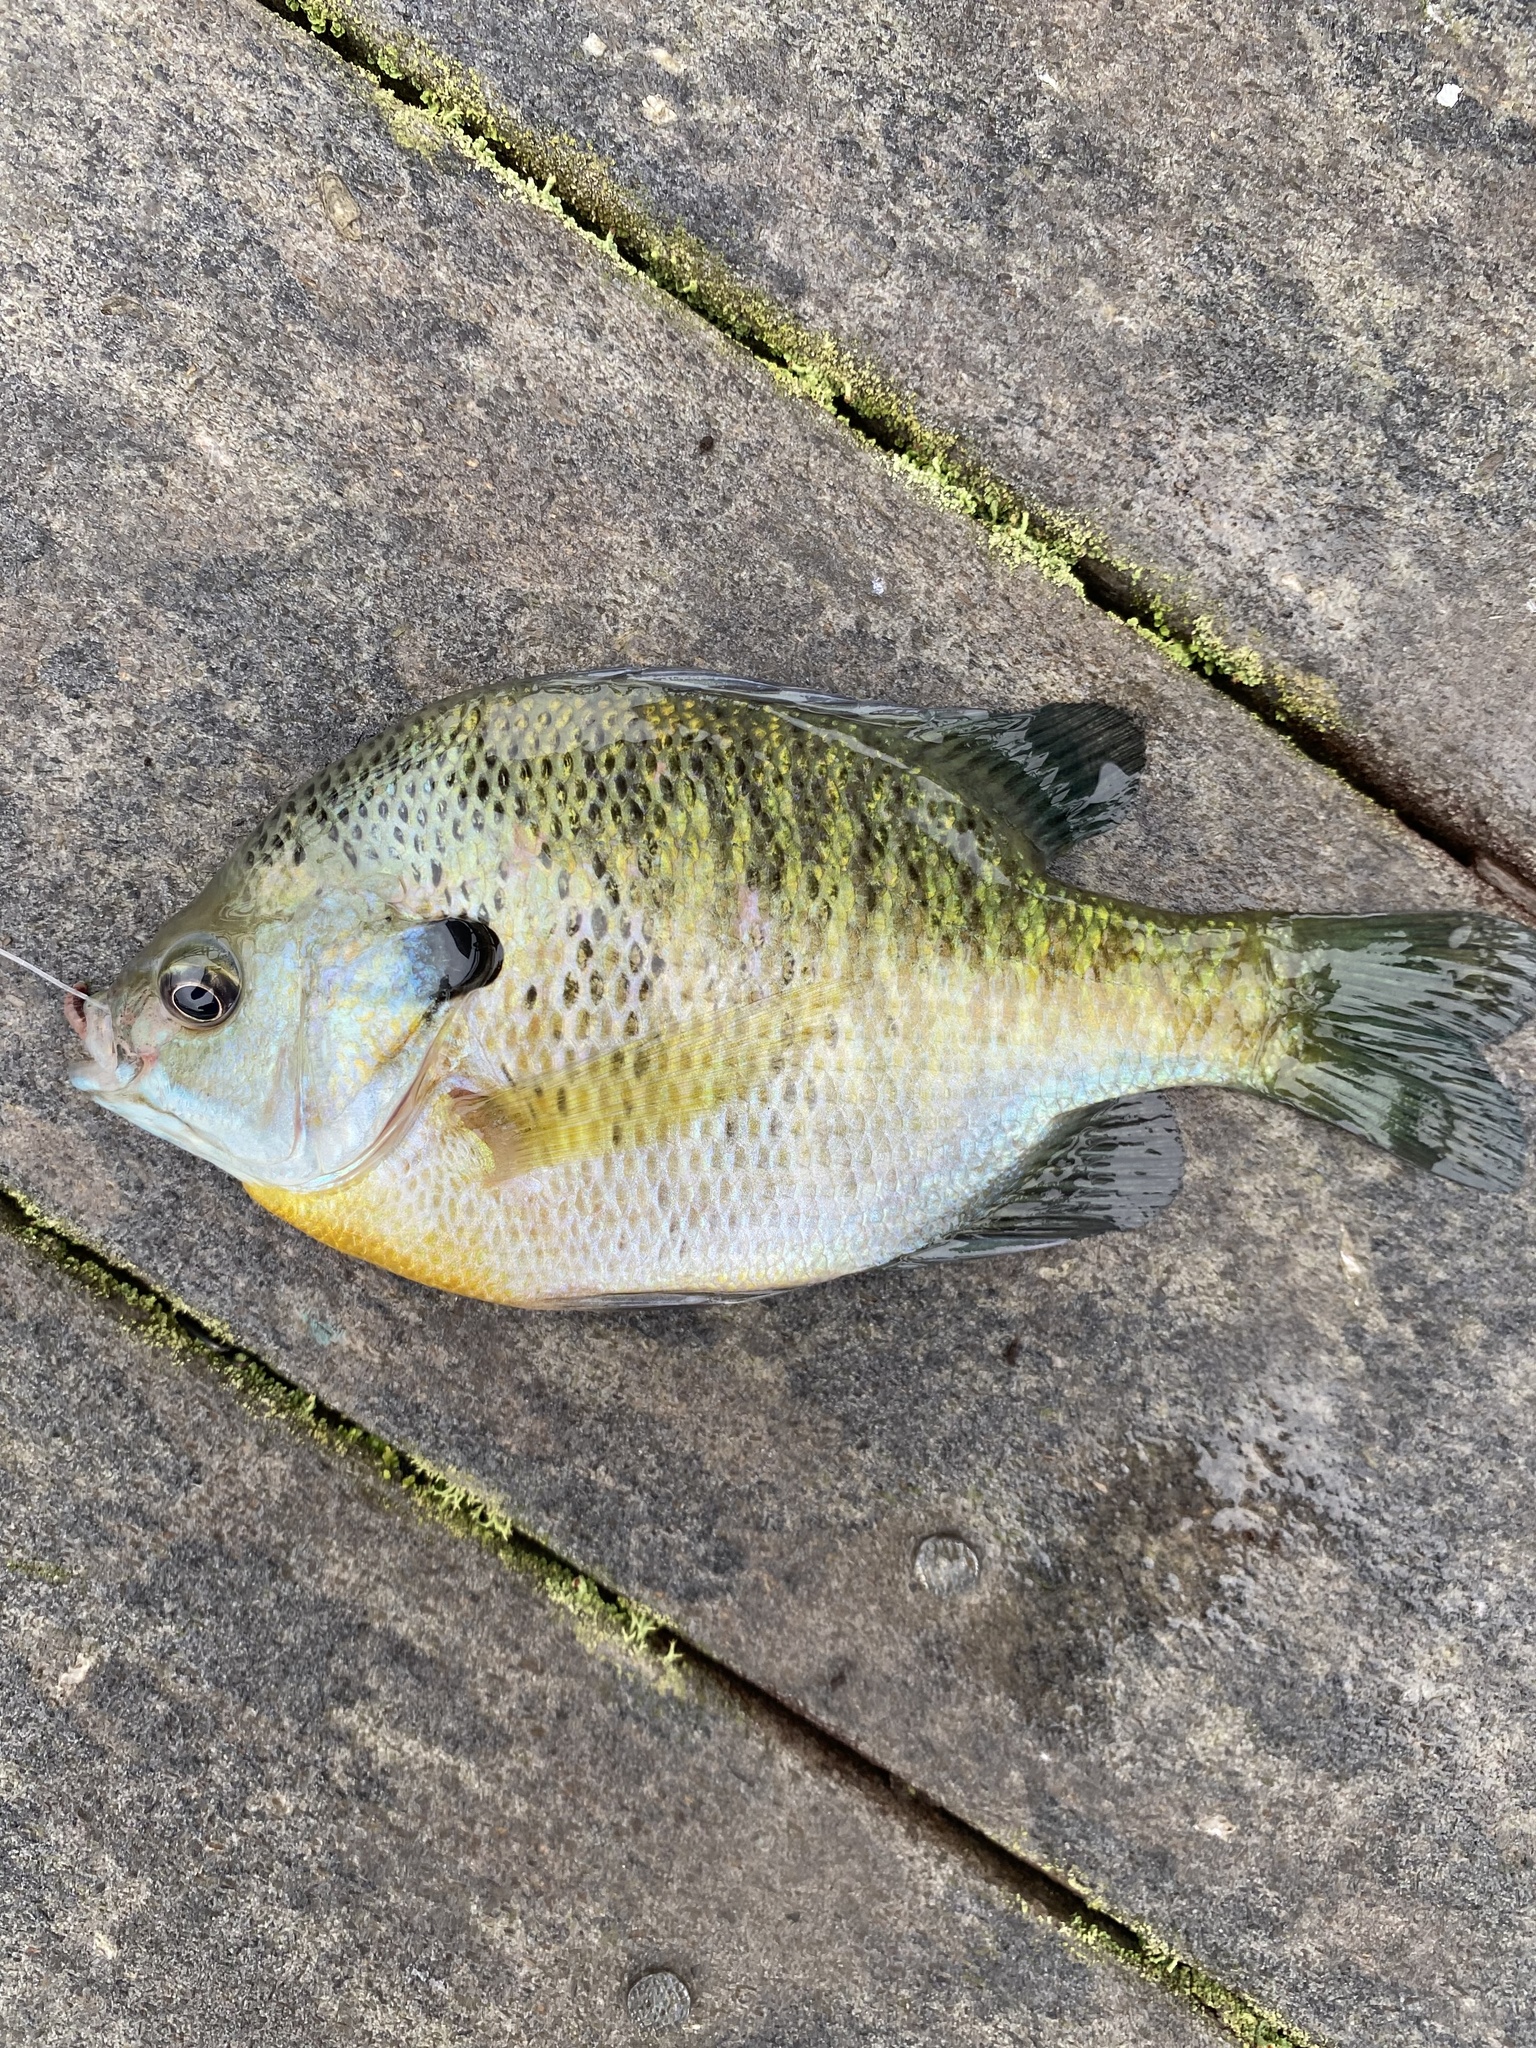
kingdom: Animalia
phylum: Chordata
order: Perciformes
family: Centrarchidae
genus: Lepomis
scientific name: Lepomis macrochirus
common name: Bluegill
